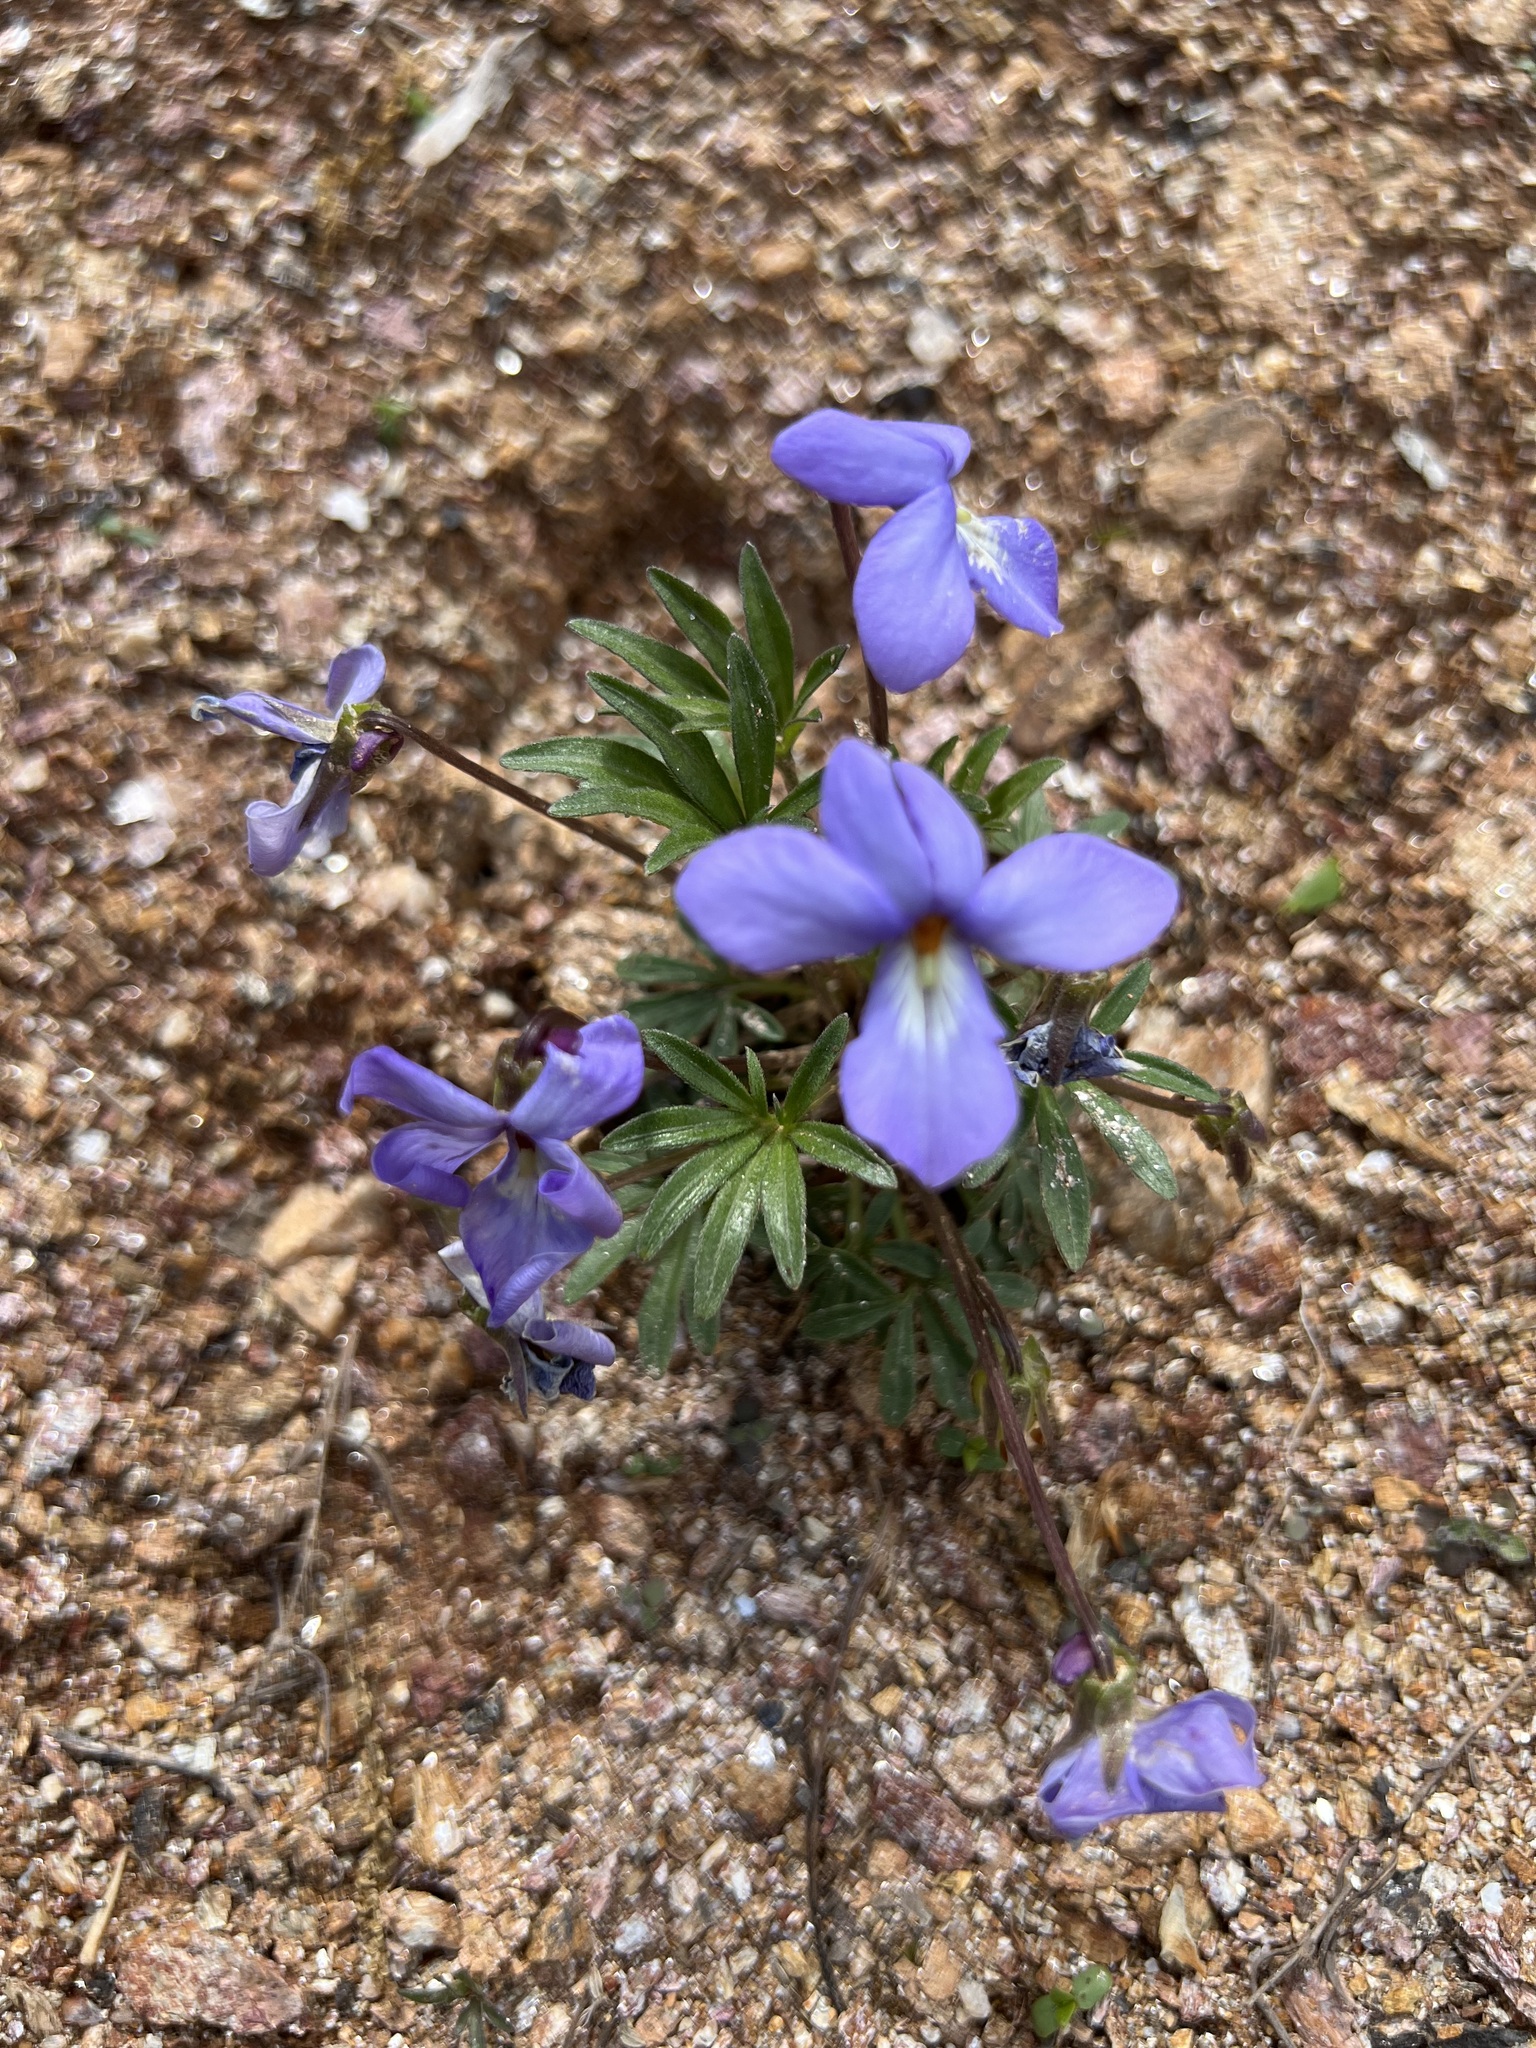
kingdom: Plantae
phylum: Tracheophyta
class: Magnoliopsida
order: Malpighiales
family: Violaceae
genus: Viola
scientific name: Viola pedata
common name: Pansy violet
